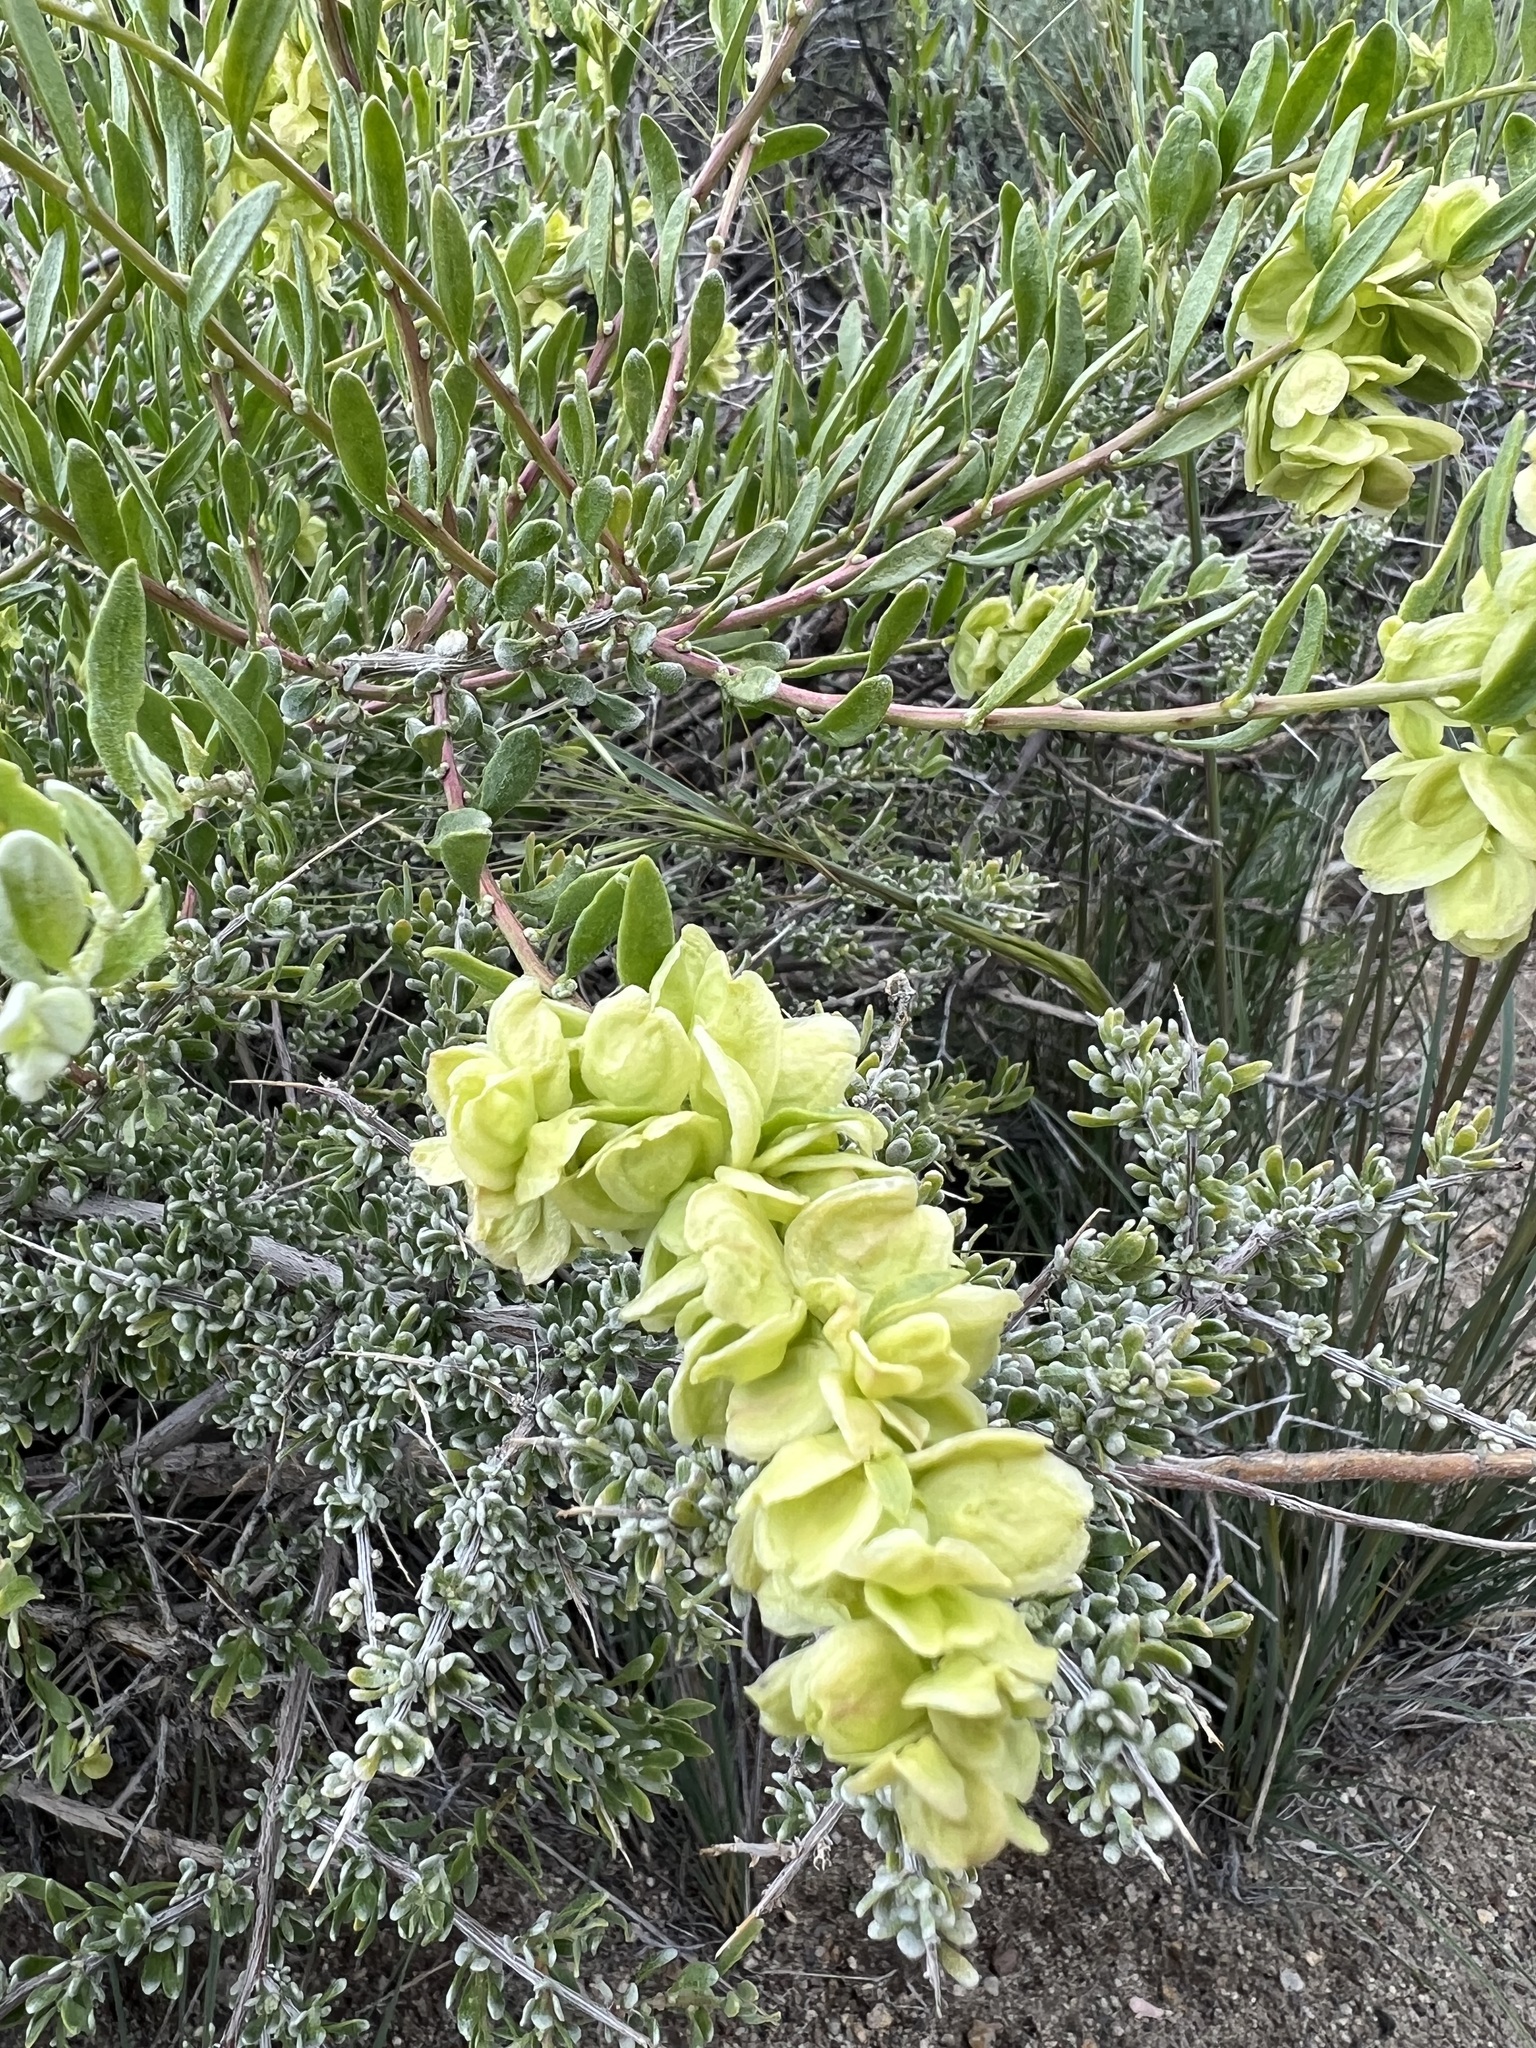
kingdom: Plantae
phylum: Tracheophyta
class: Magnoliopsida
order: Caryophyllales
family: Amaranthaceae
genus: Grayia
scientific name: Grayia spinosa
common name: Spiny hopsage
